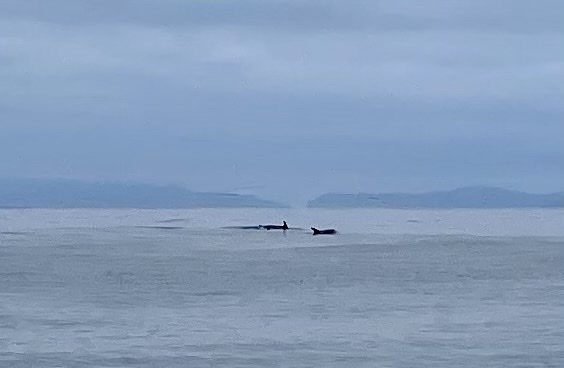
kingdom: Animalia
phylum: Chordata
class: Mammalia
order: Cetacea
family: Delphinidae
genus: Grampus
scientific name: Grampus griseus
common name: Risso's dolphin
